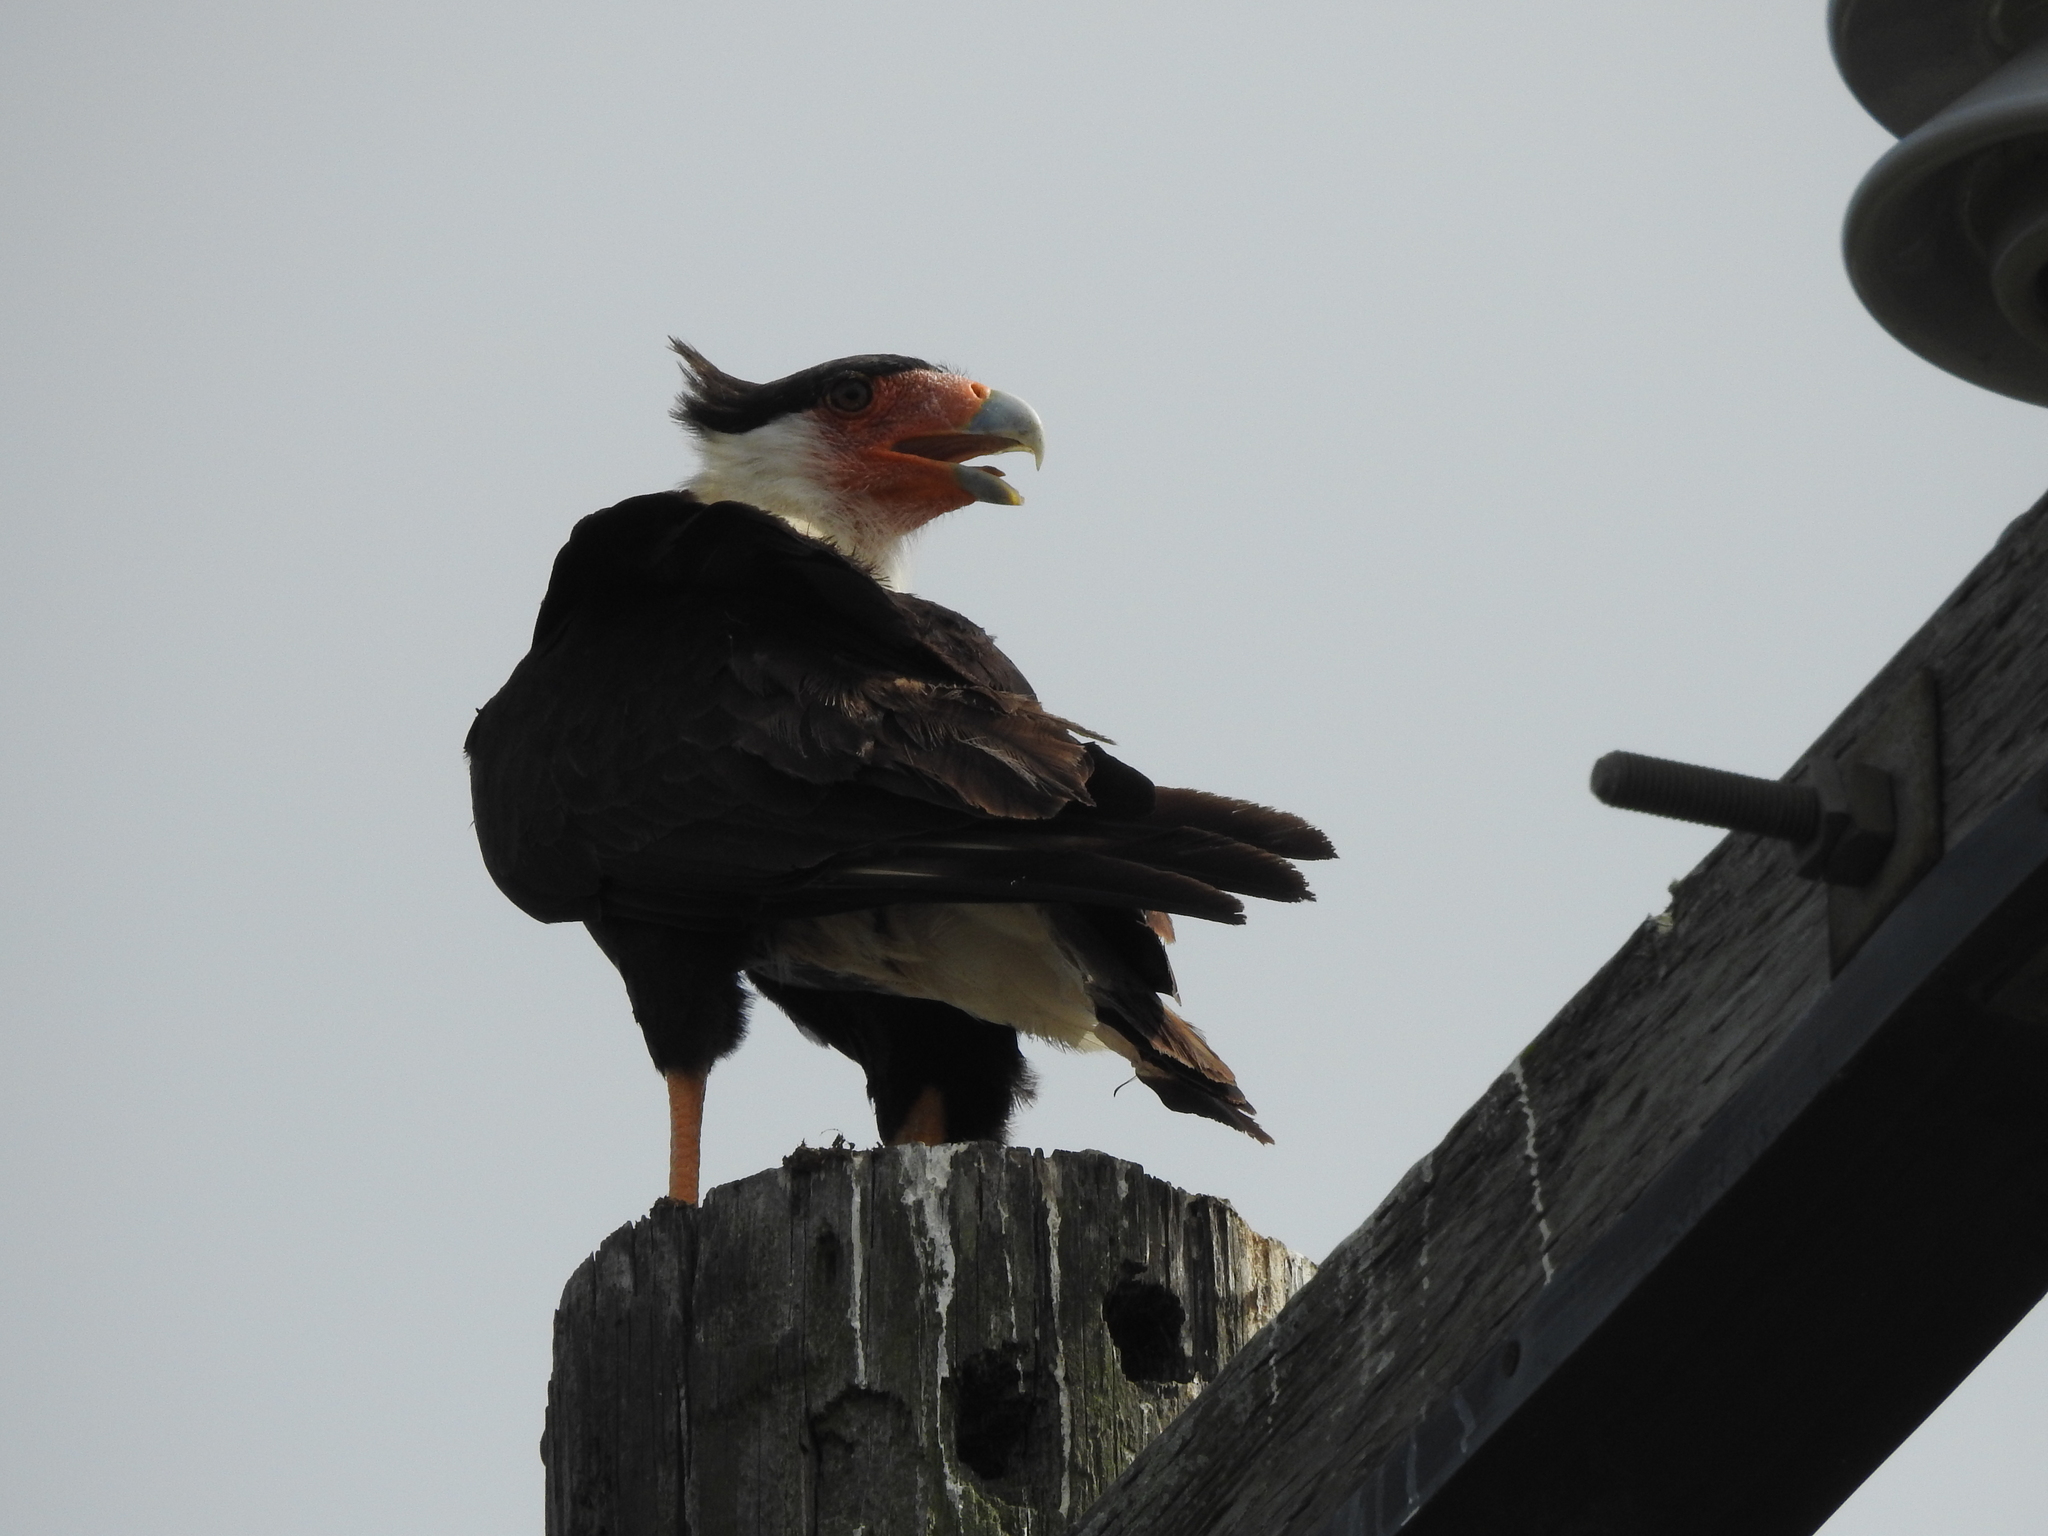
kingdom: Animalia
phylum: Chordata
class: Aves
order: Falconiformes
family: Falconidae
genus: Caracara
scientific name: Caracara plancus
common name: Southern caracara
